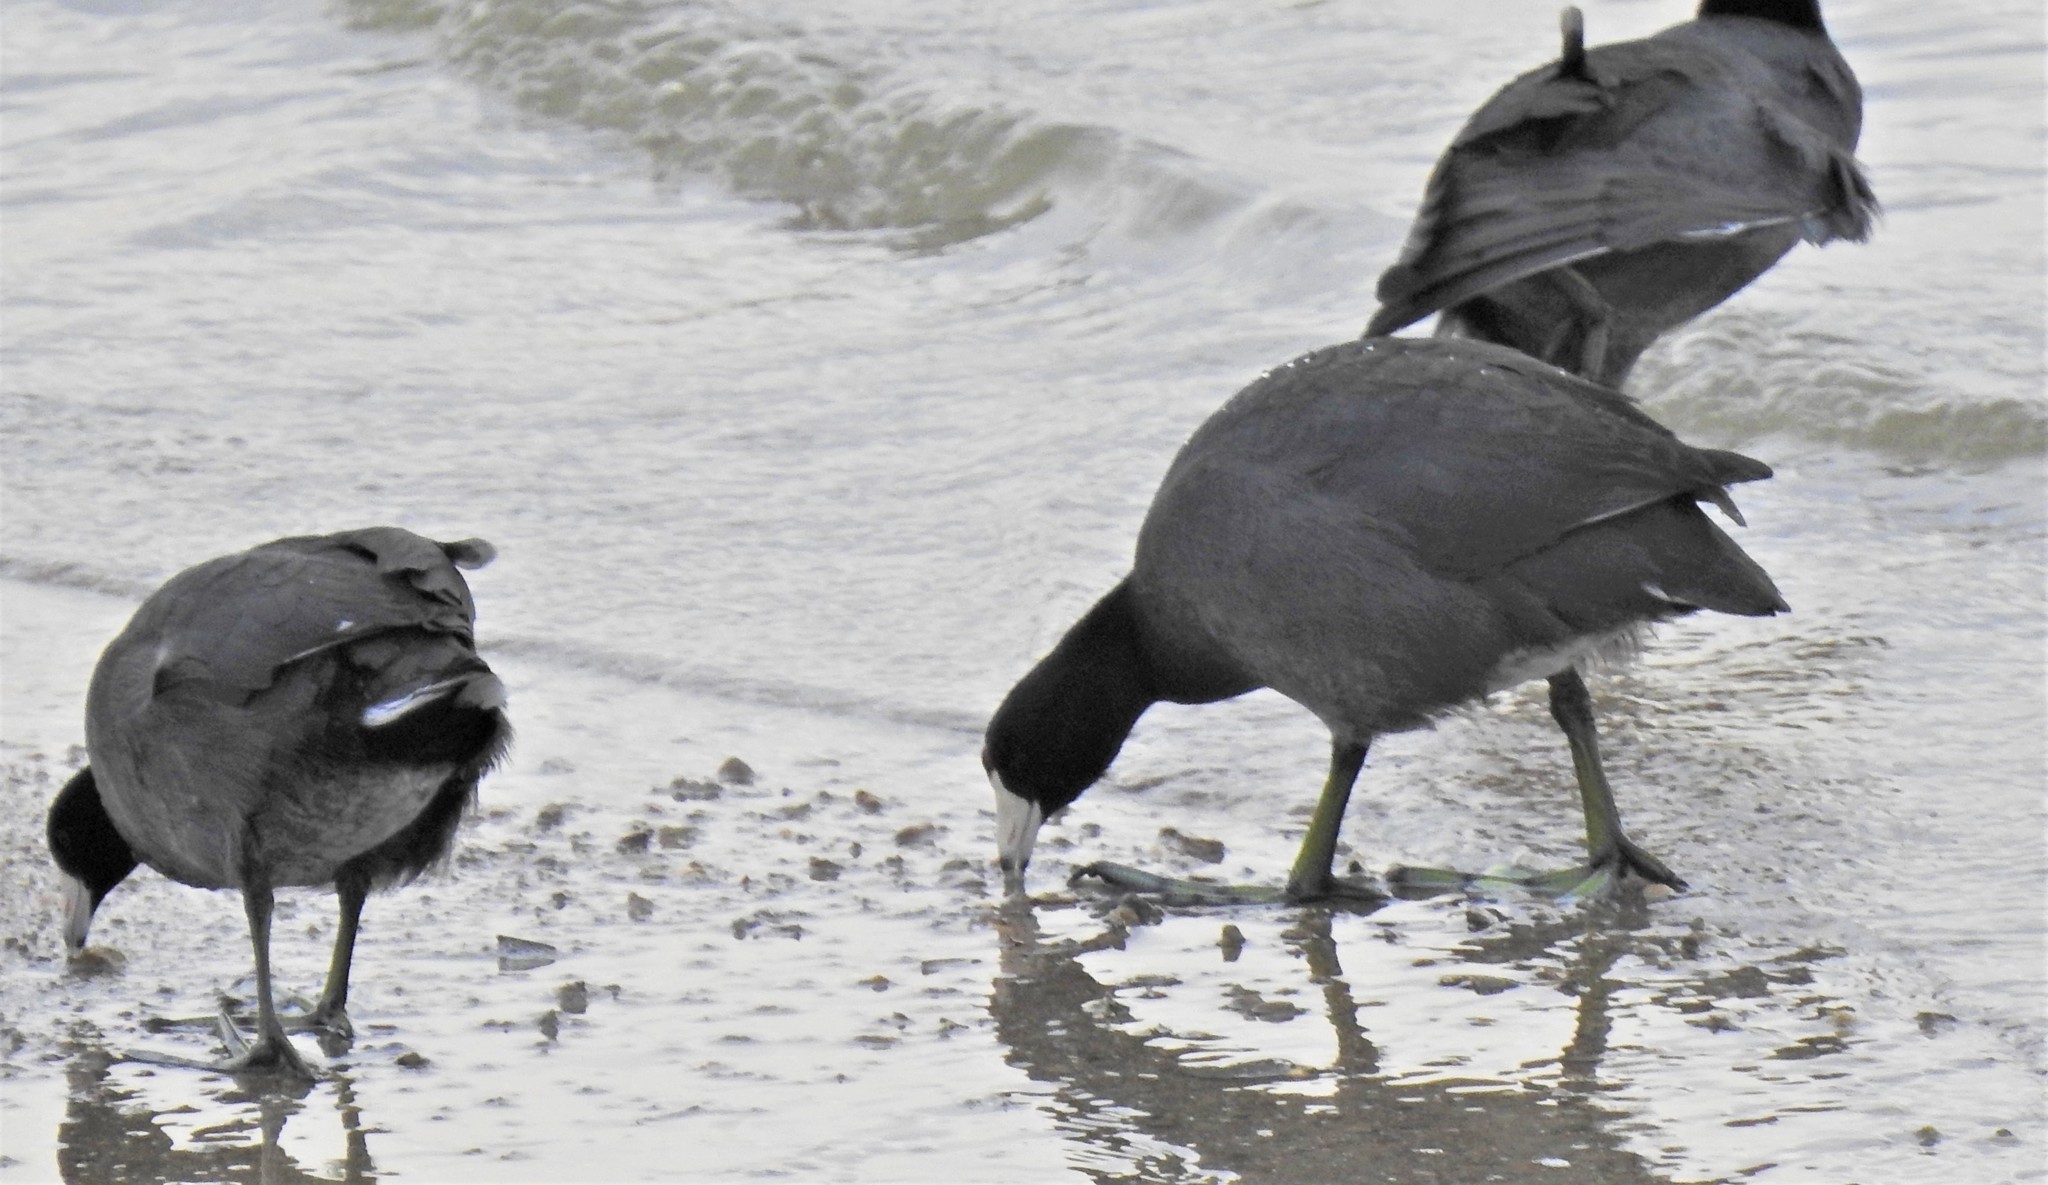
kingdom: Animalia
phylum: Chordata
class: Aves
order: Gruiformes
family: Rallidae
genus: Fulica
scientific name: Fulica americana
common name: American coot
